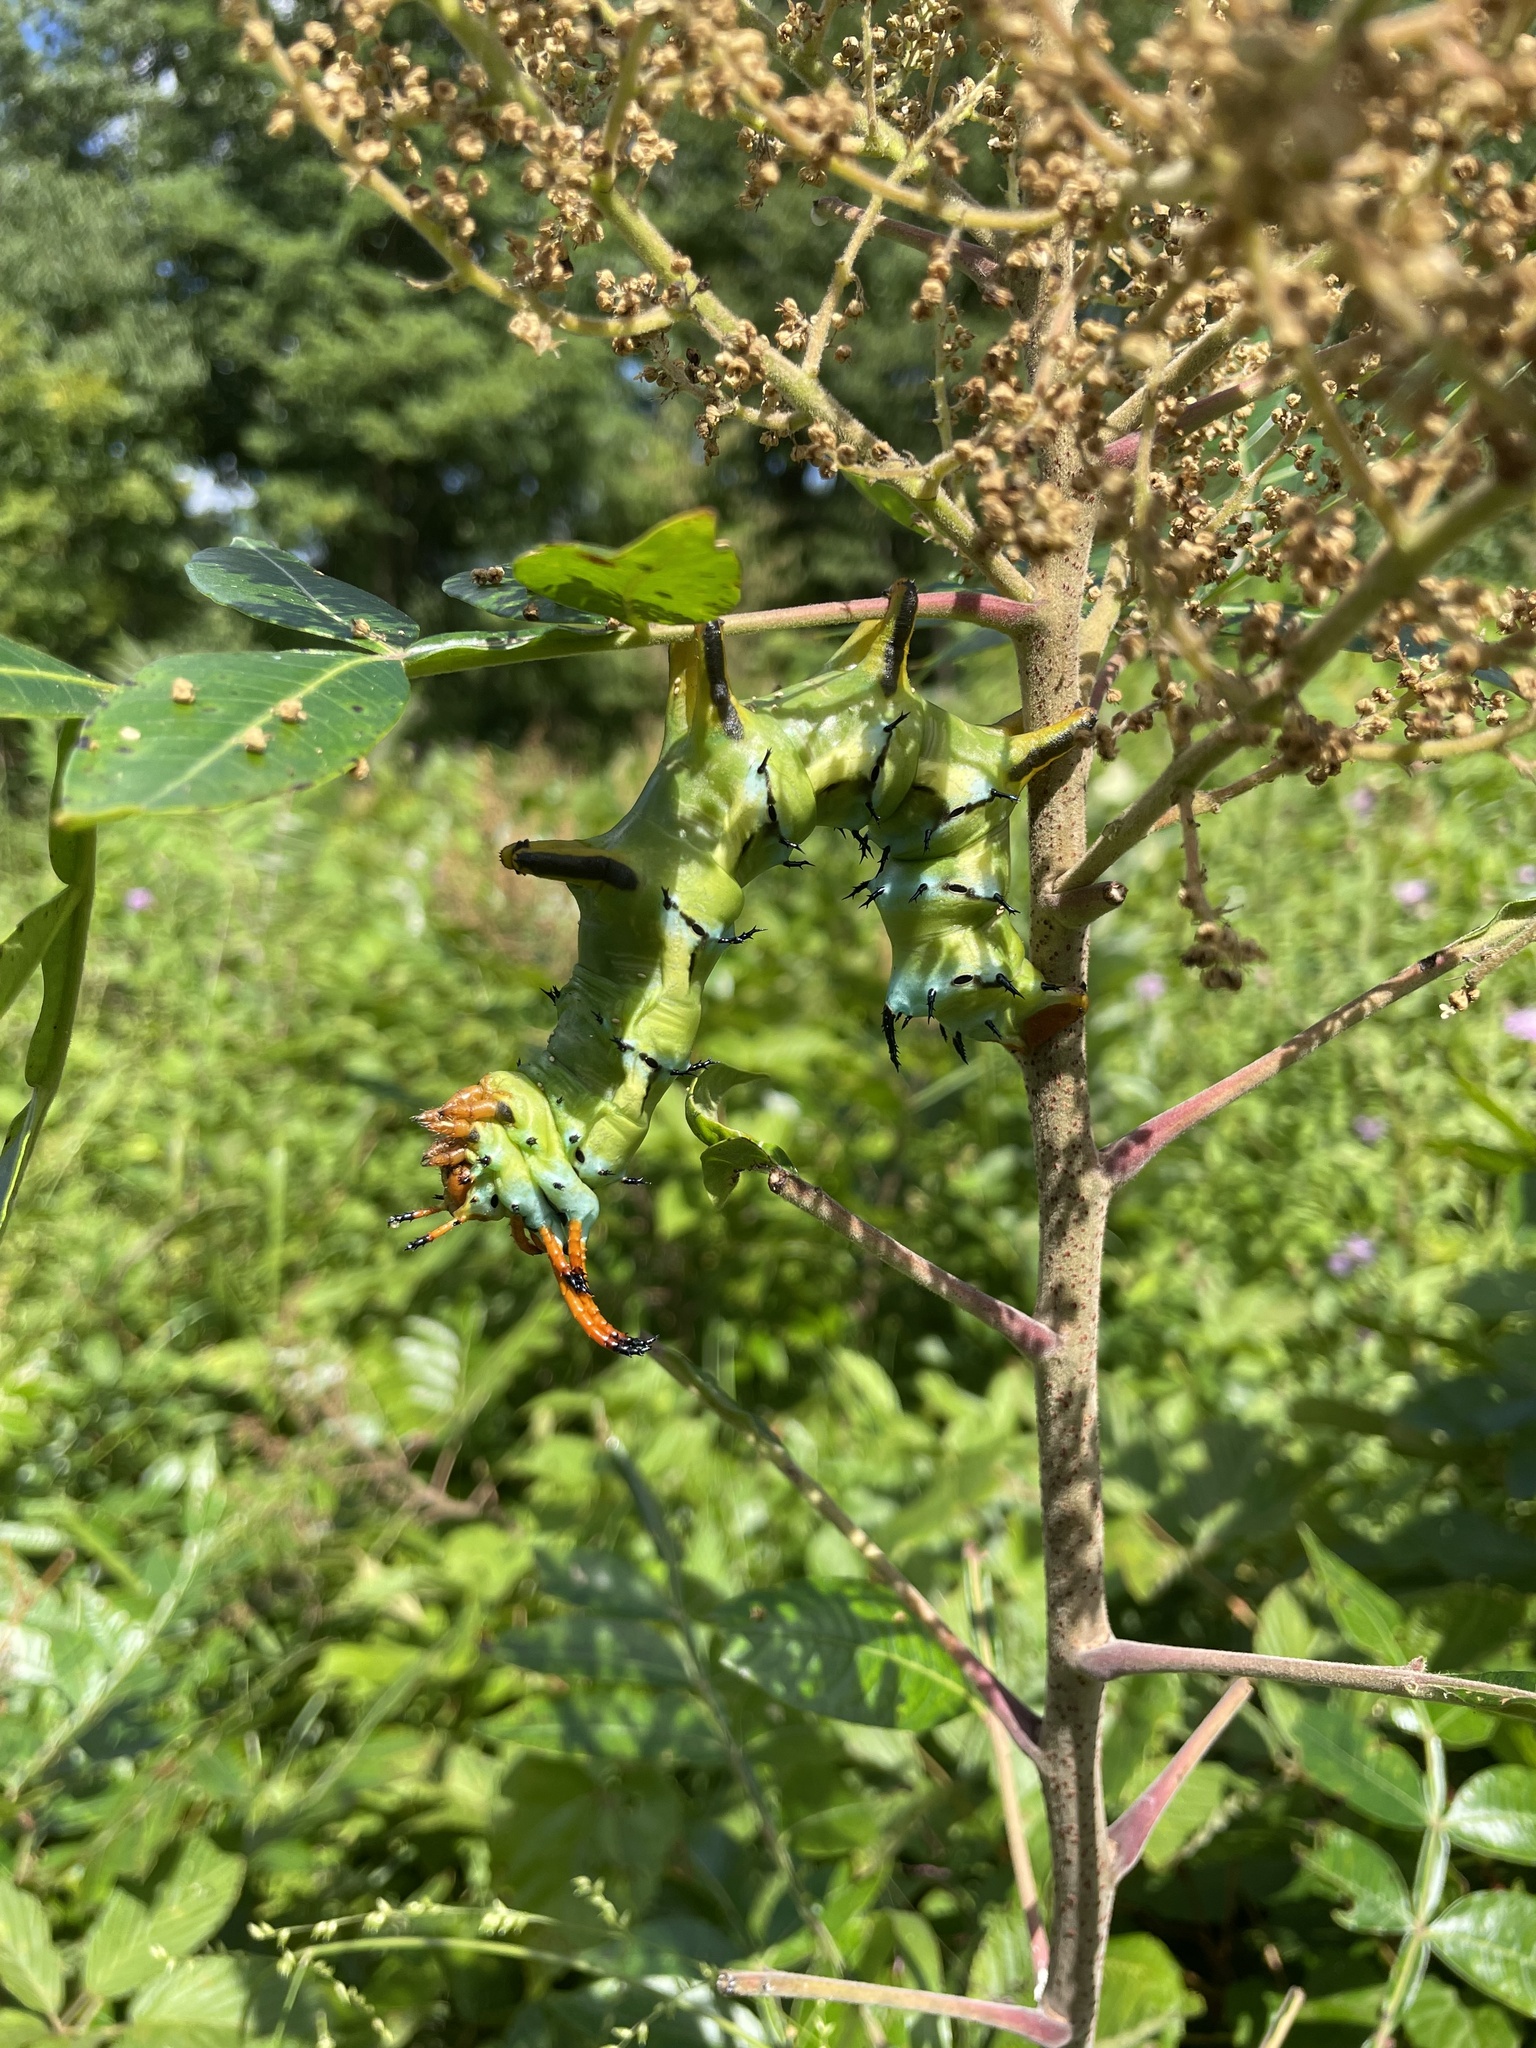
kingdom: Animalia
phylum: Arthropoda
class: Insecta
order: Lepidoptera
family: Saturniidae
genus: Citheronia
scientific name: Citheronia regalis
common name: Hickory horned devil
